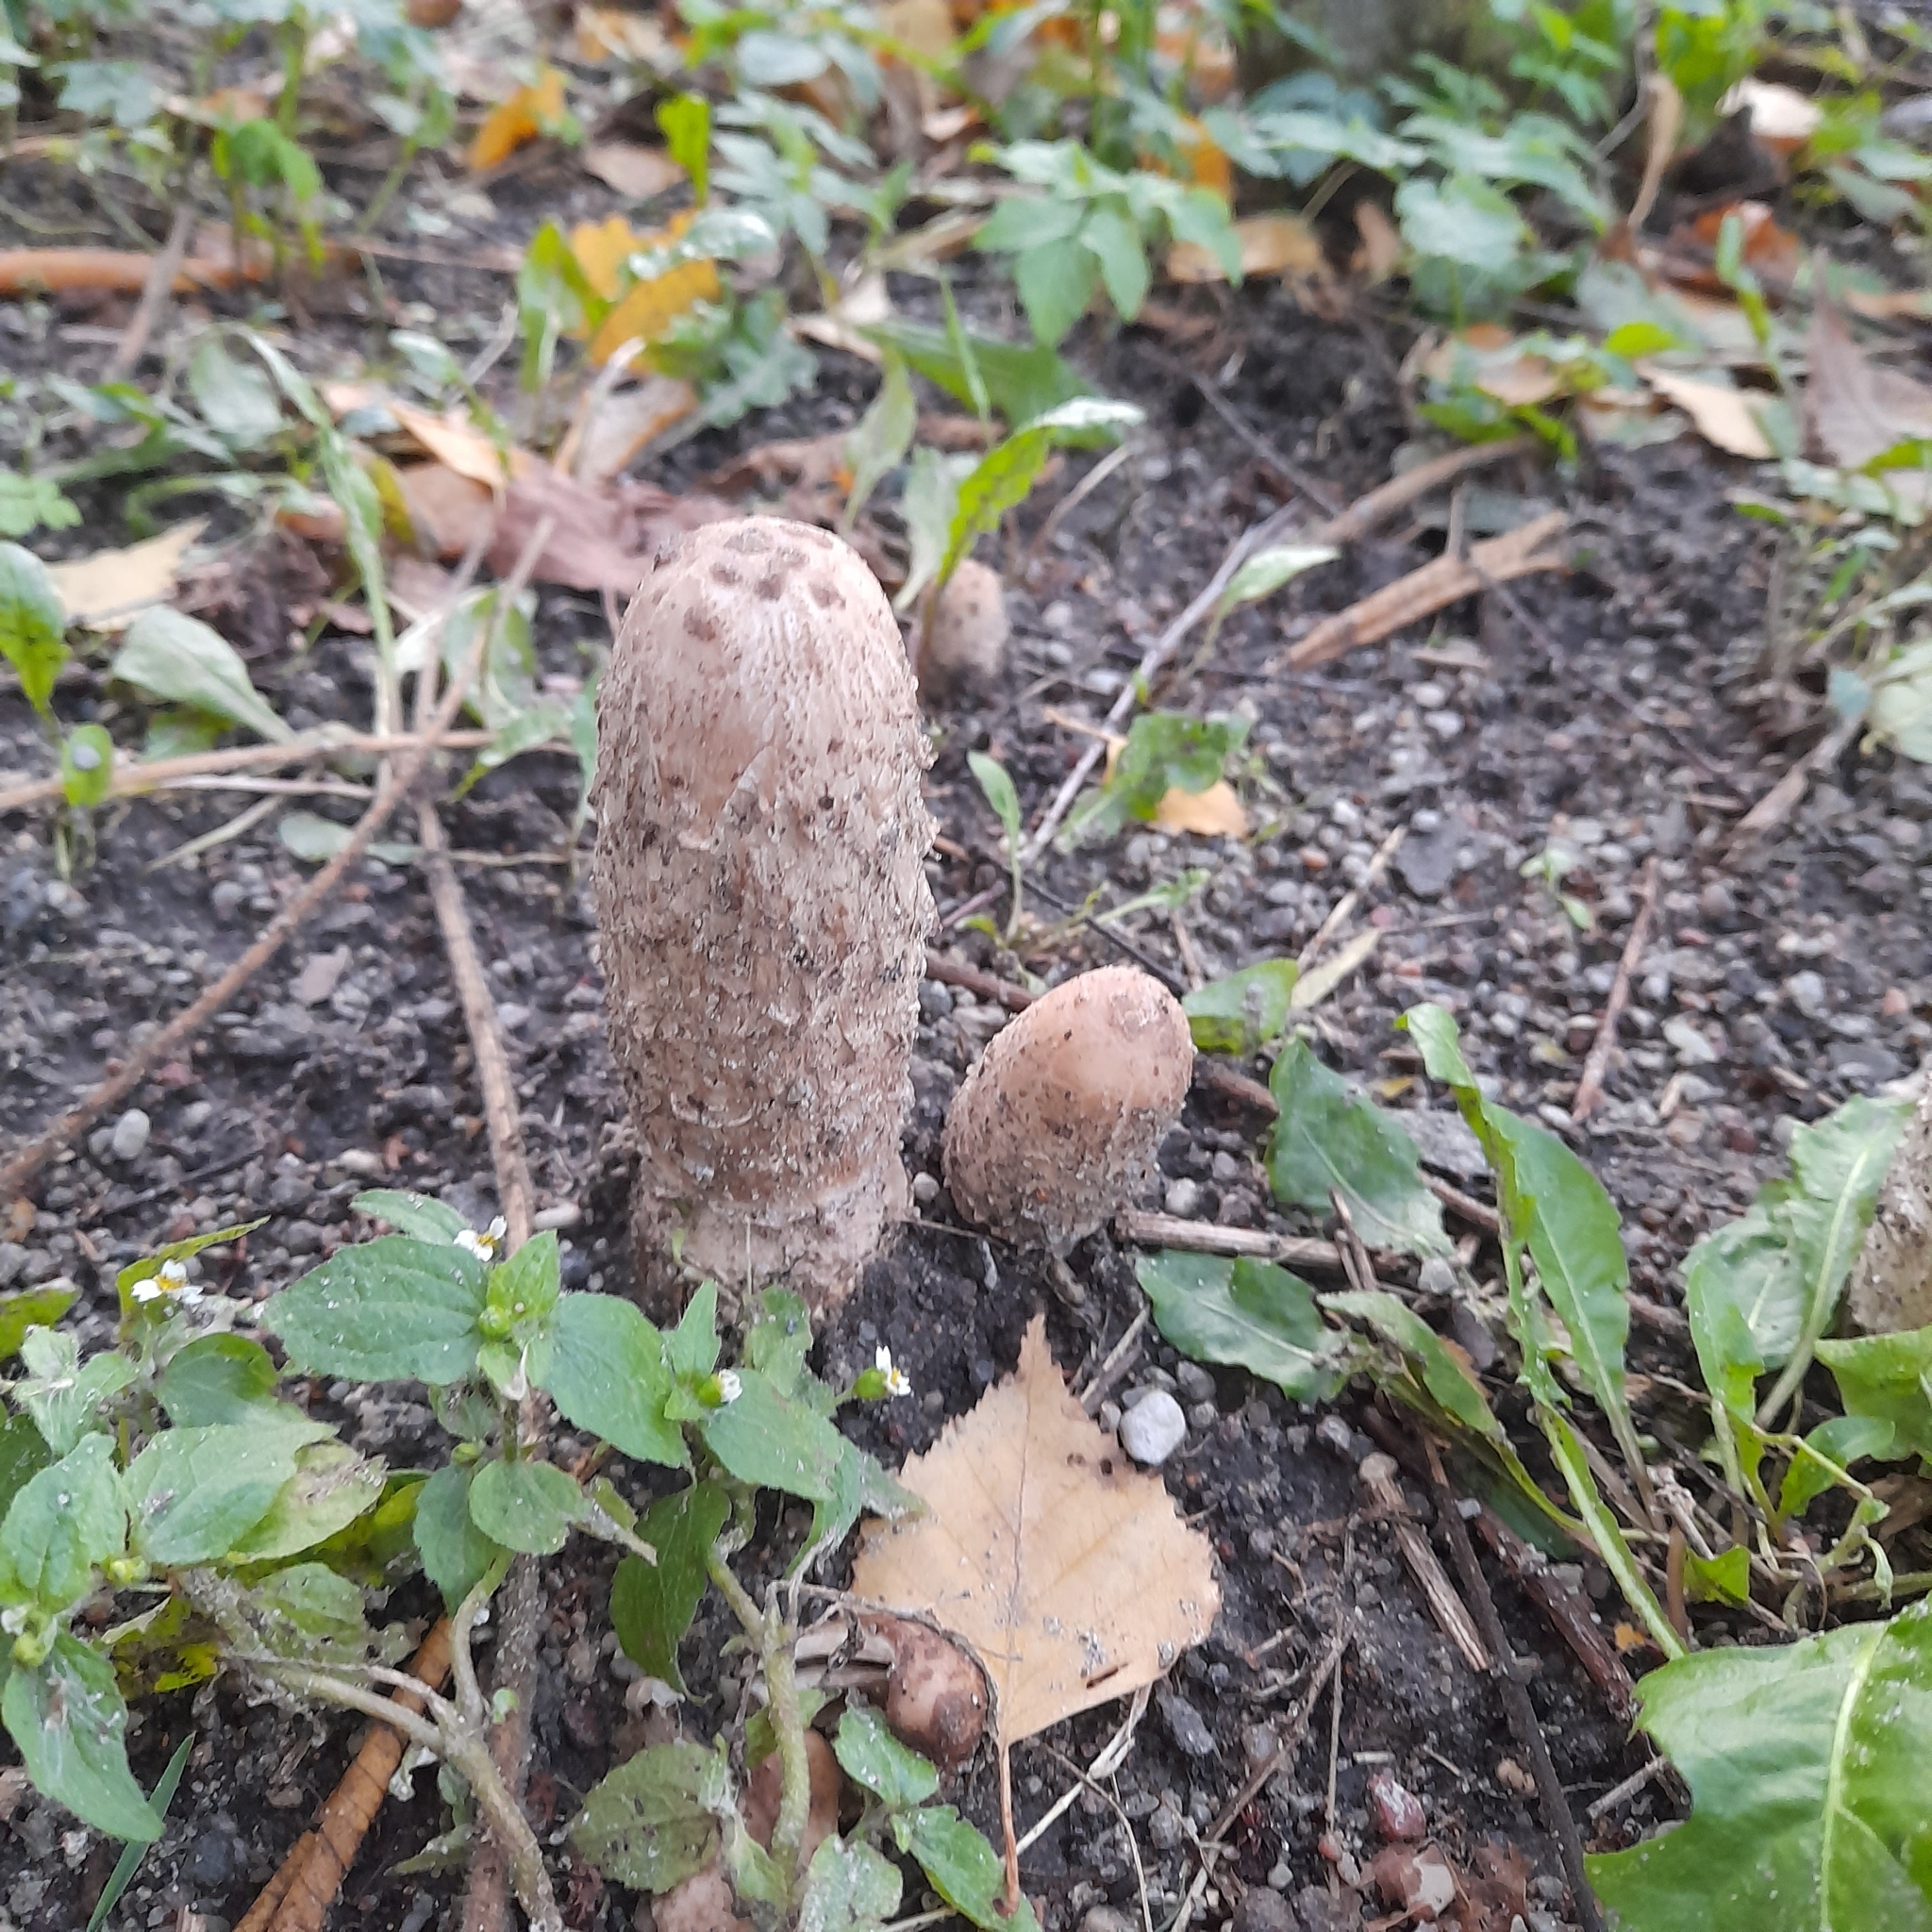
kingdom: Fungi
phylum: Basidiomycota
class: Agaricomycetes
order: Agaricales
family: Agaricaceae
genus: Coprinus
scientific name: Coprinus comatus
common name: Lawyer's wig
